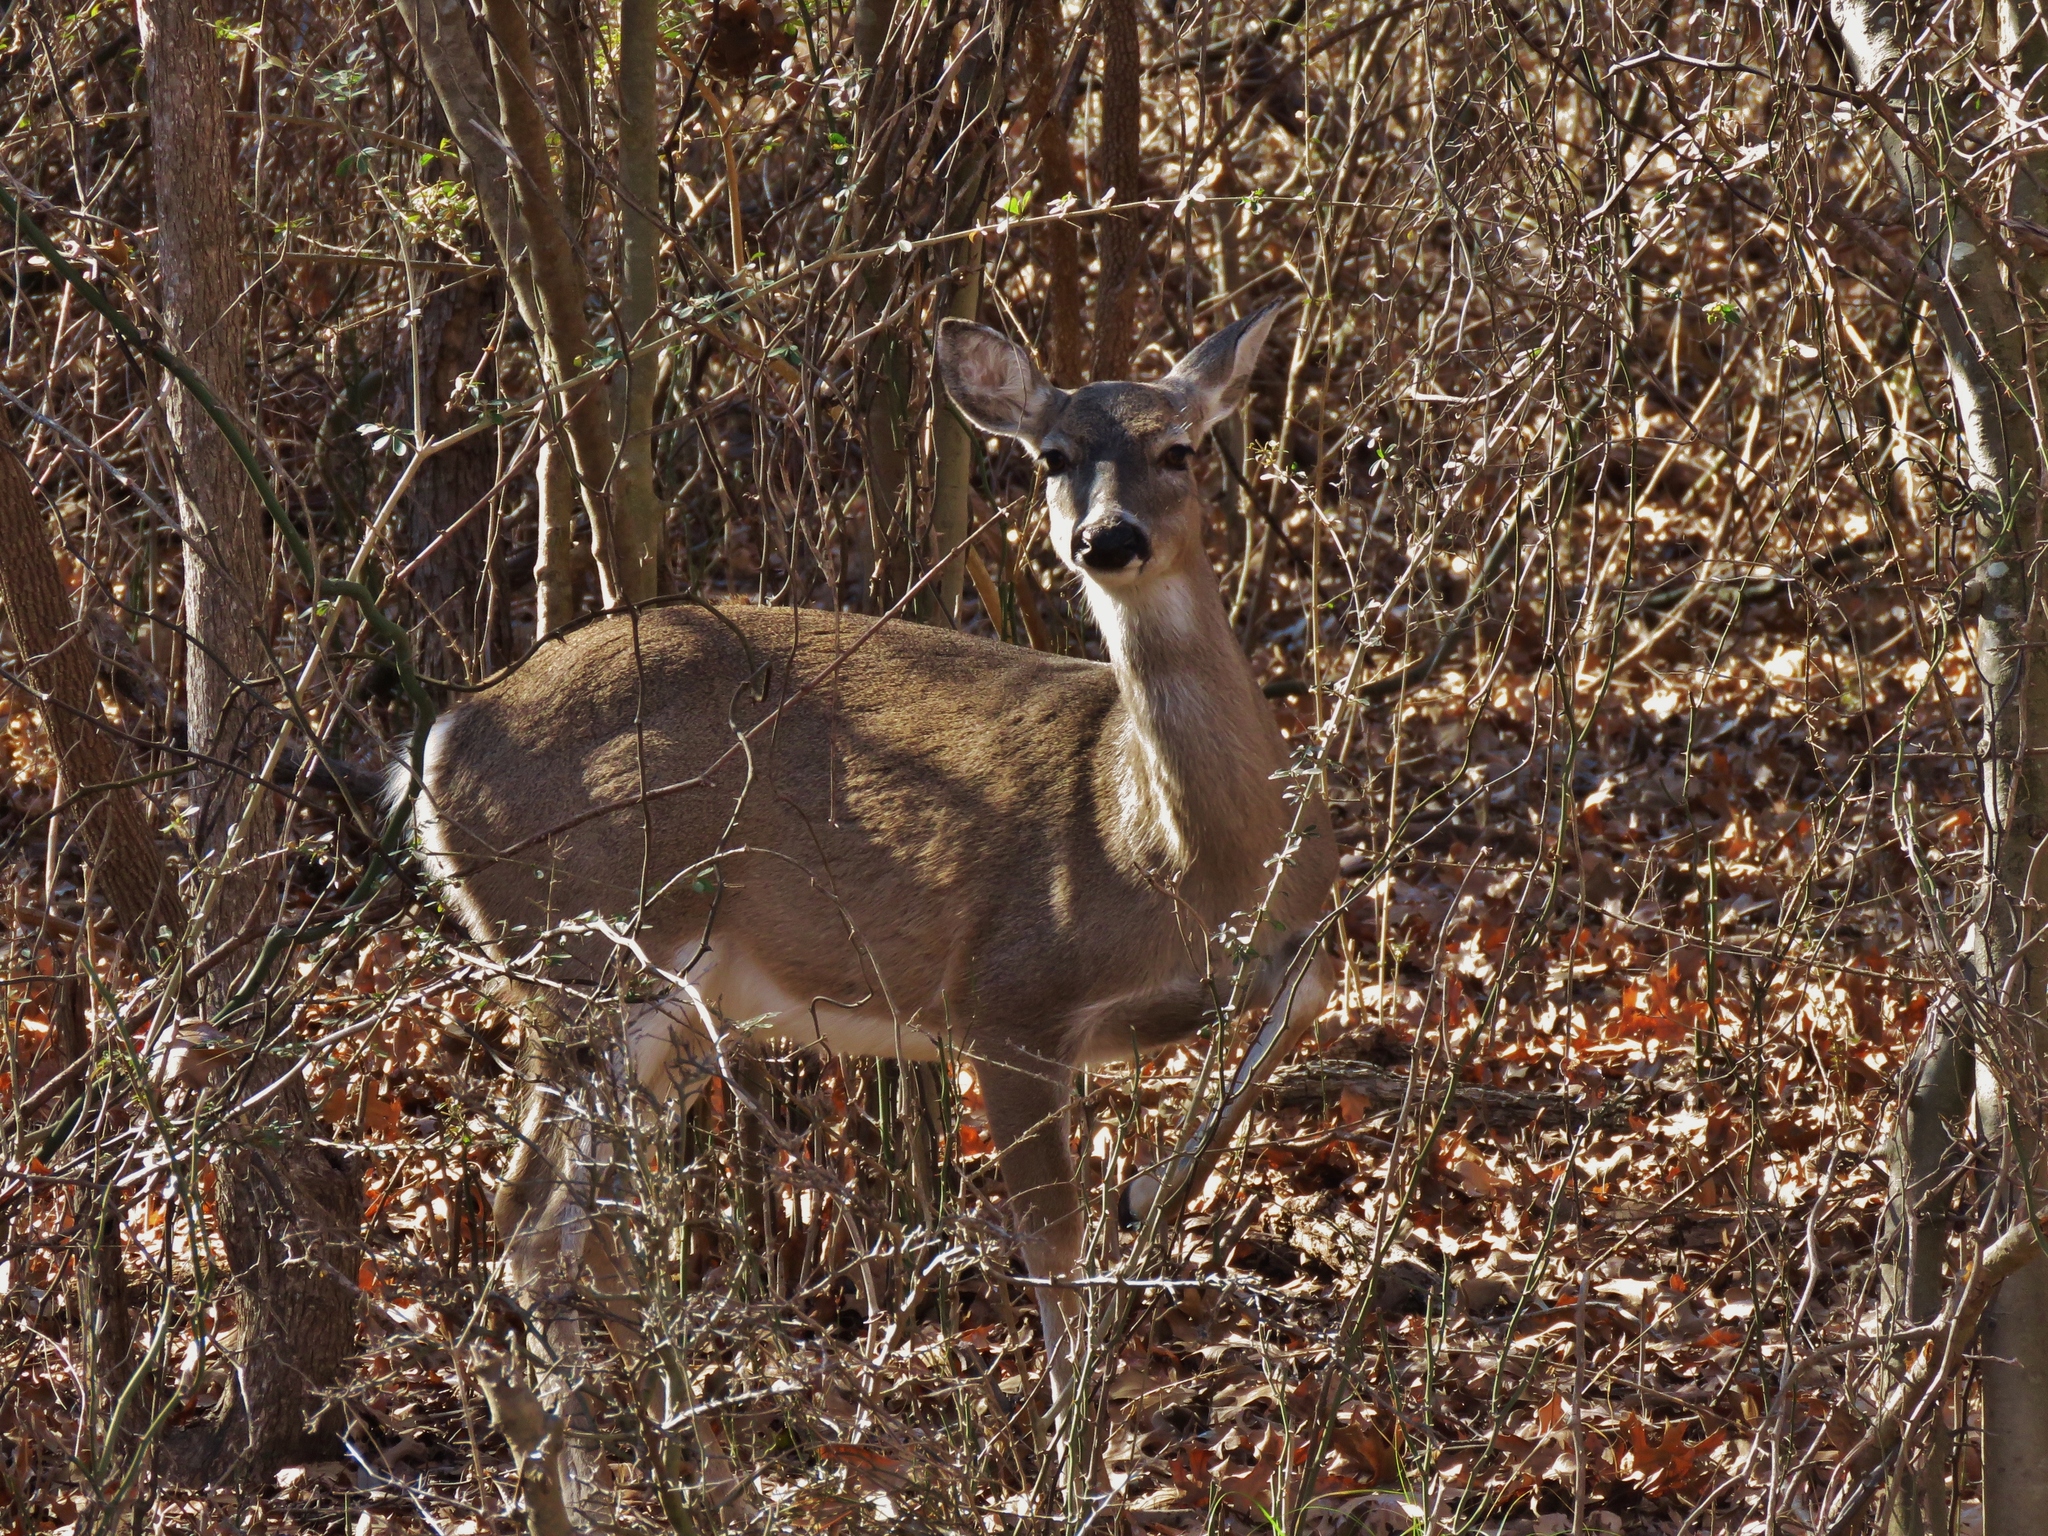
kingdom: Animalia
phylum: Chordata
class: Mammalia
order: Artiodactyla
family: Cervidae
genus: Odocoileus
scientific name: Odocoileus virginianus
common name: White-tailed deer
